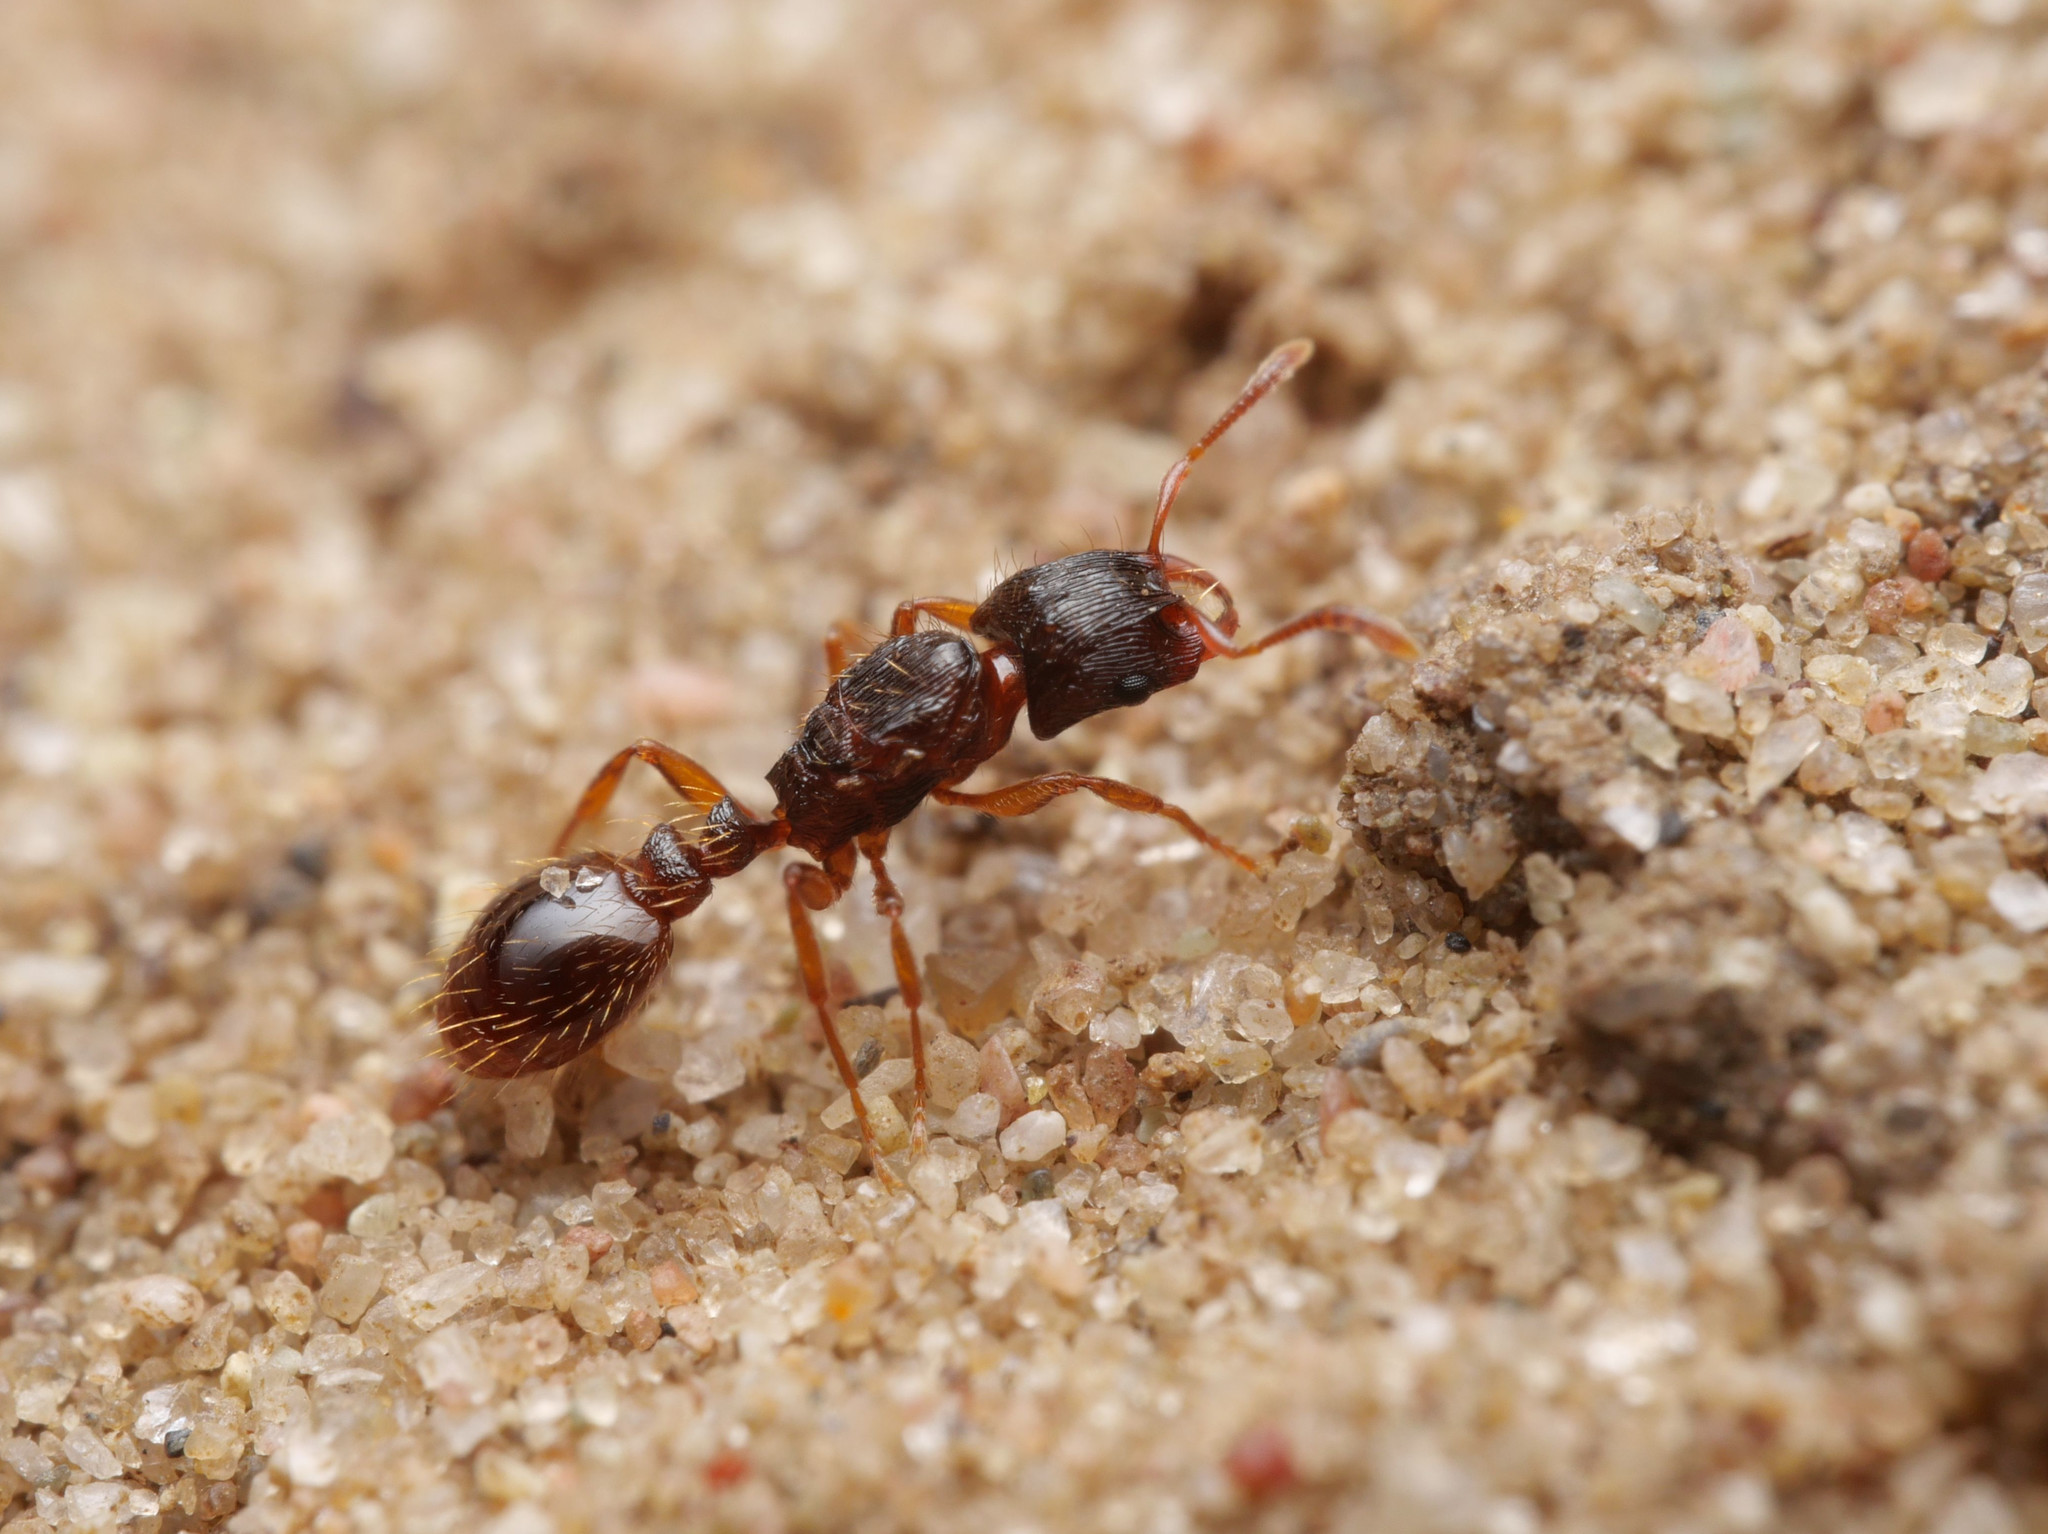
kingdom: Animalia
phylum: Arthropoda
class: Insecta
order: Hymenoptera
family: Formicidae
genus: Strongylognathus
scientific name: Strongylognathus testaceus
